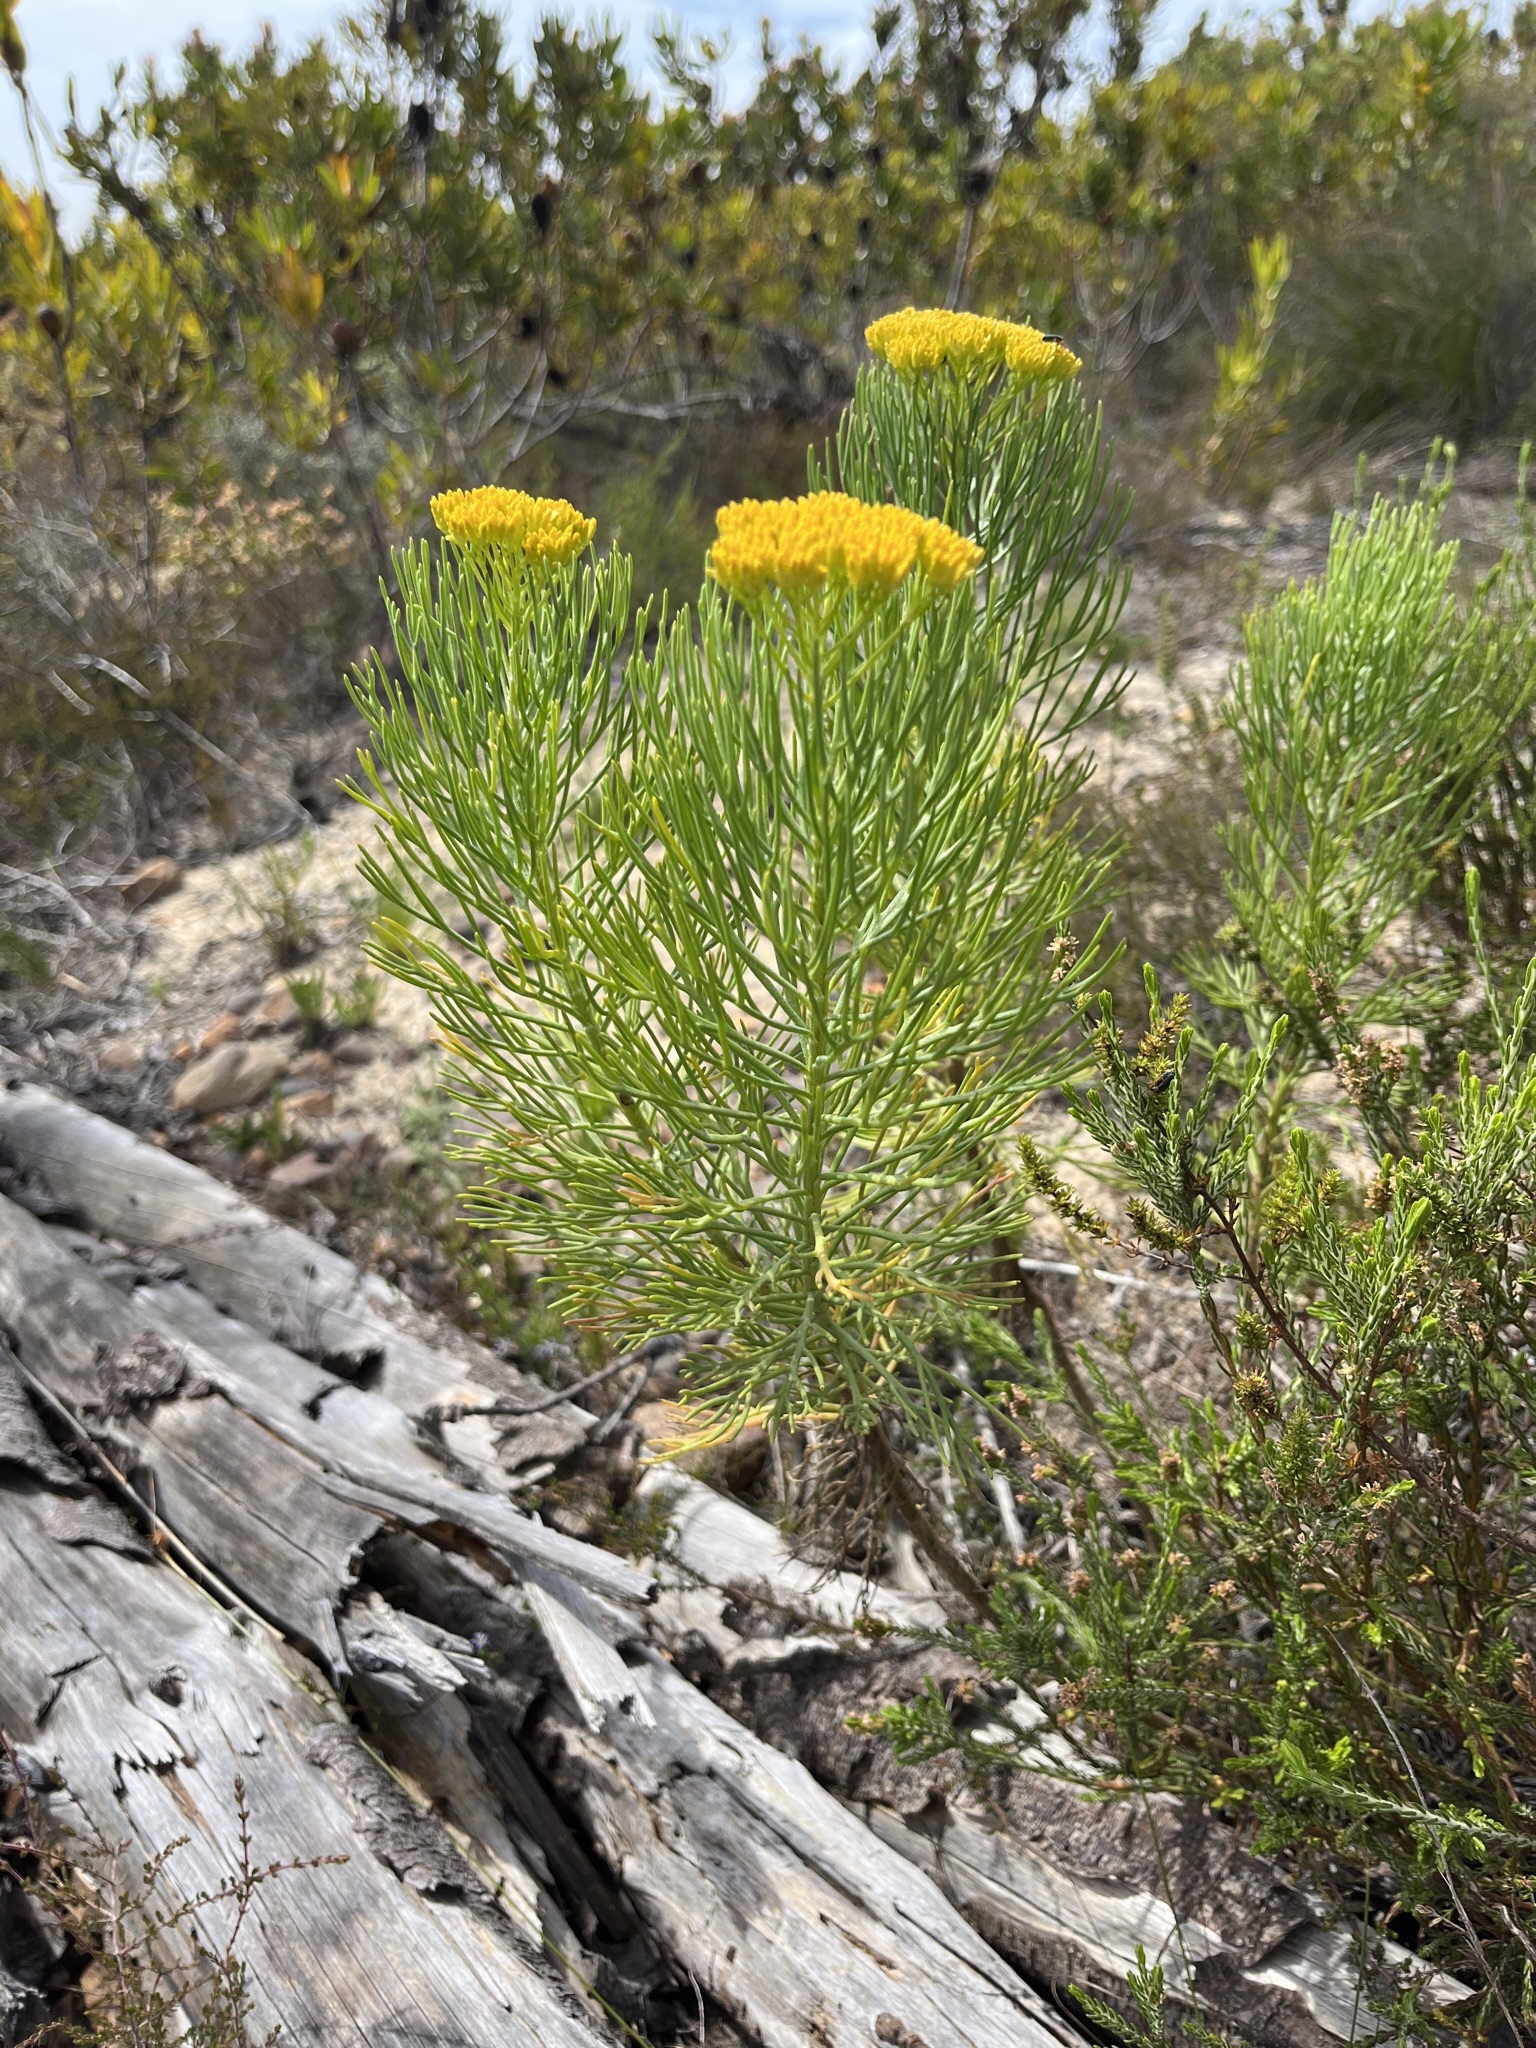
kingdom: Plantae
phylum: Tracheophyta
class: Magnoliopsida
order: Asterales
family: Asteraceae
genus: Hymenolepis
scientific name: Hymenolepis crithmifolia
